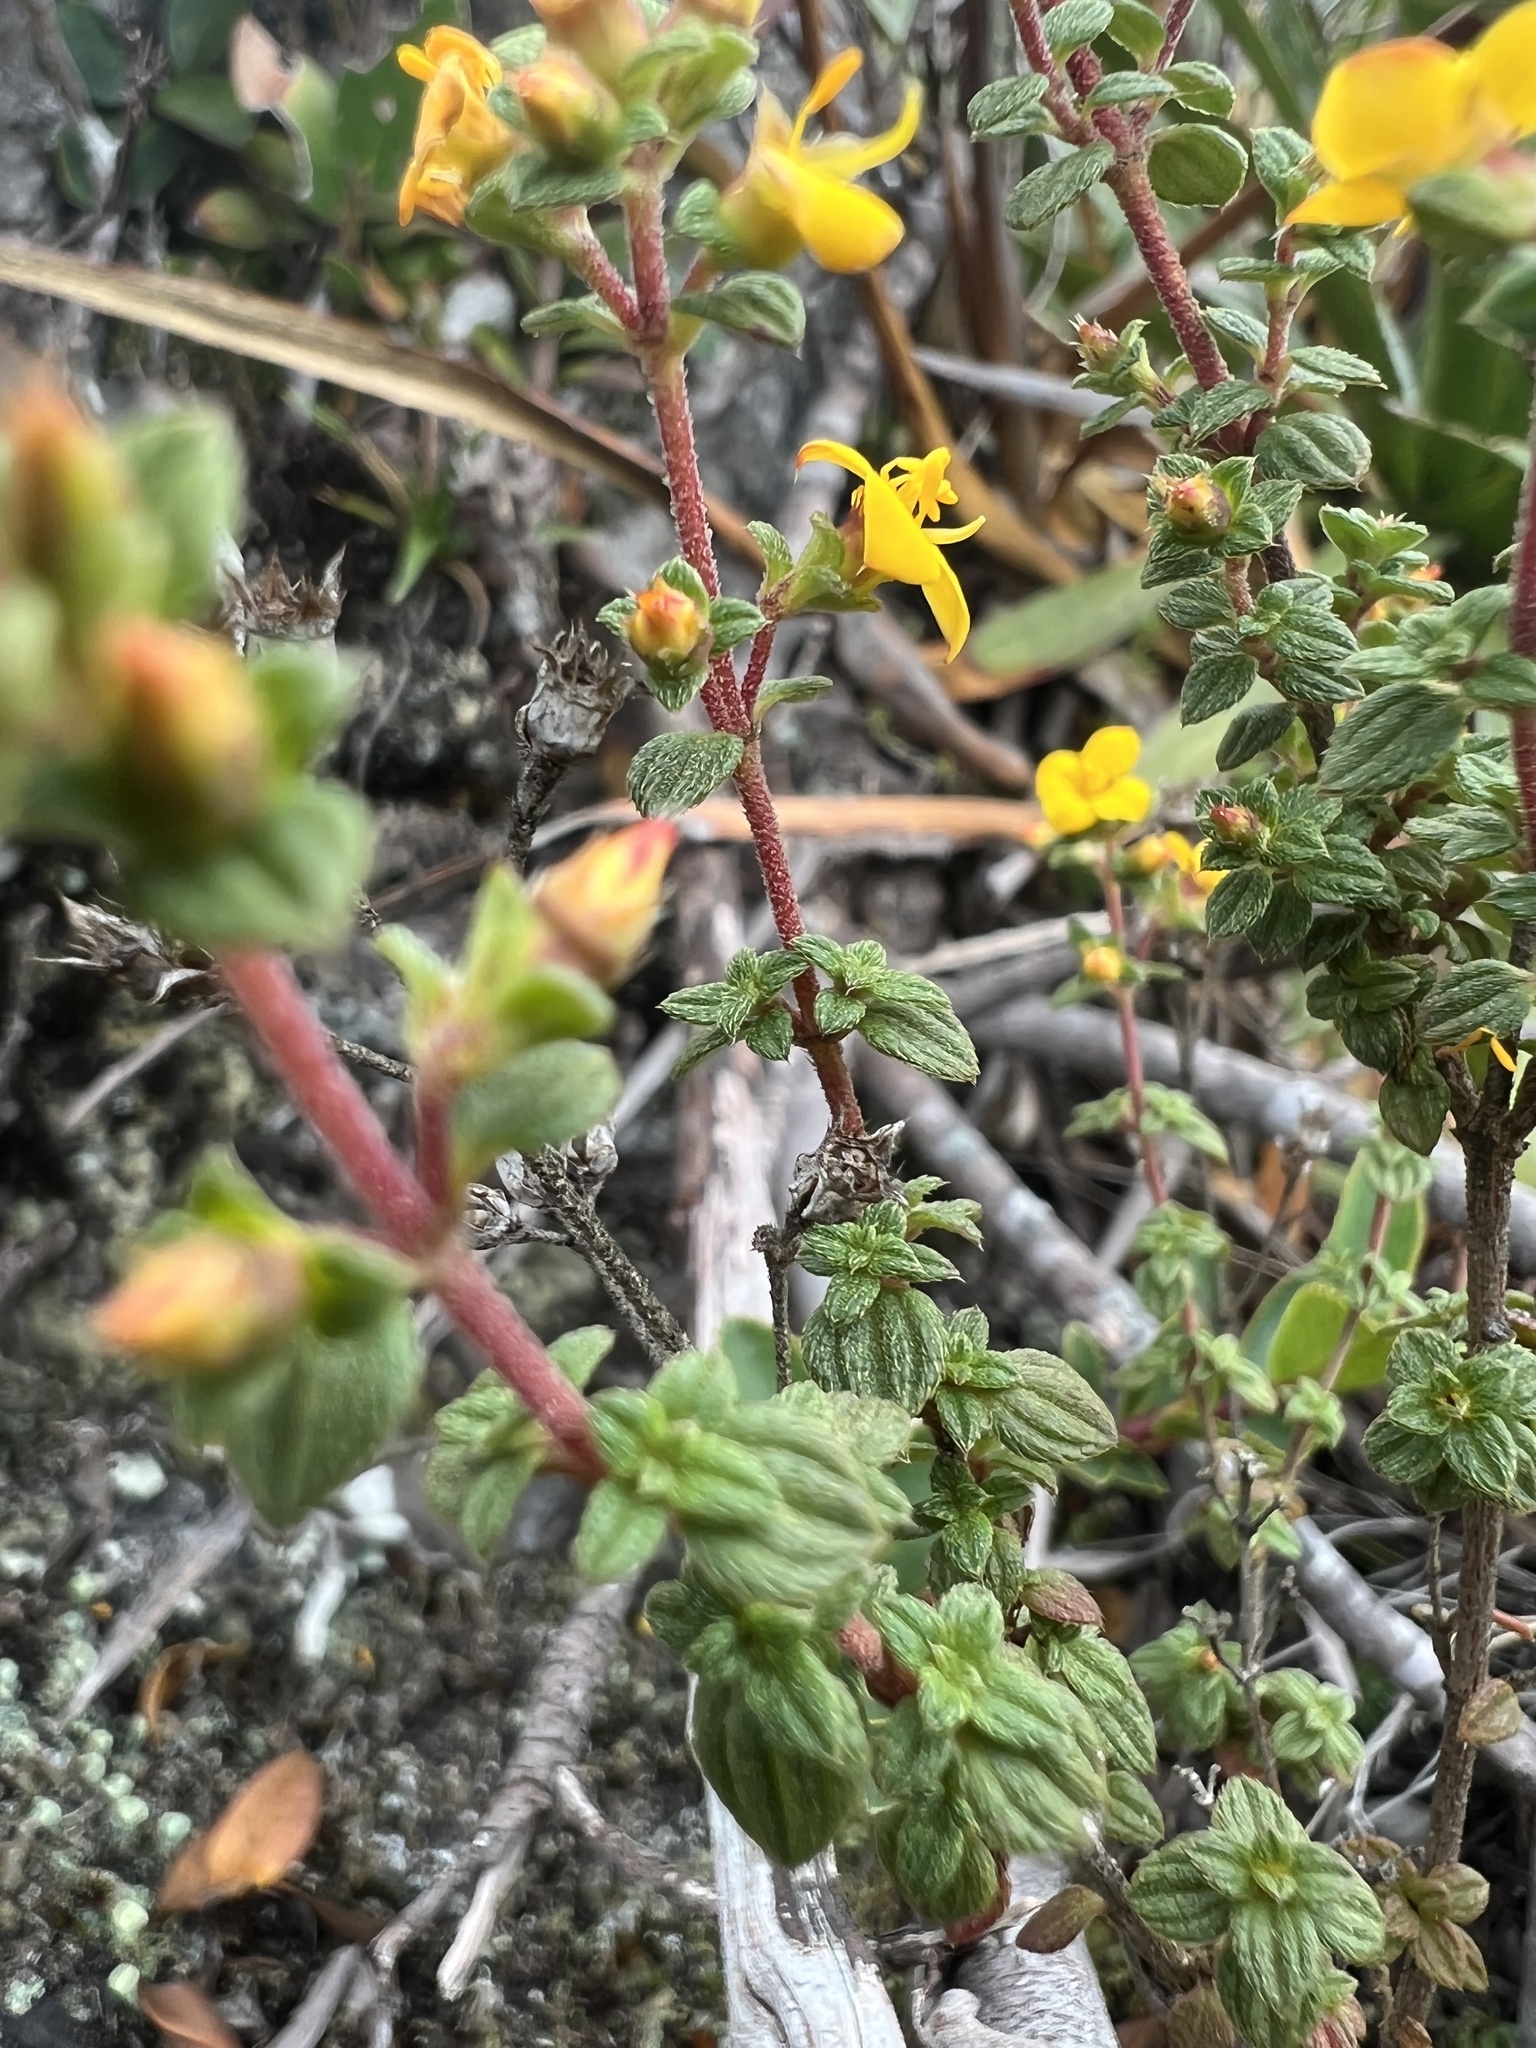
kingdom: Plantae
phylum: Tracheophyta
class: Magnoliopsida
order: Myrtales
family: Melastomataceae
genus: Chaetolepis
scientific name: Chaetolepis microphylla
